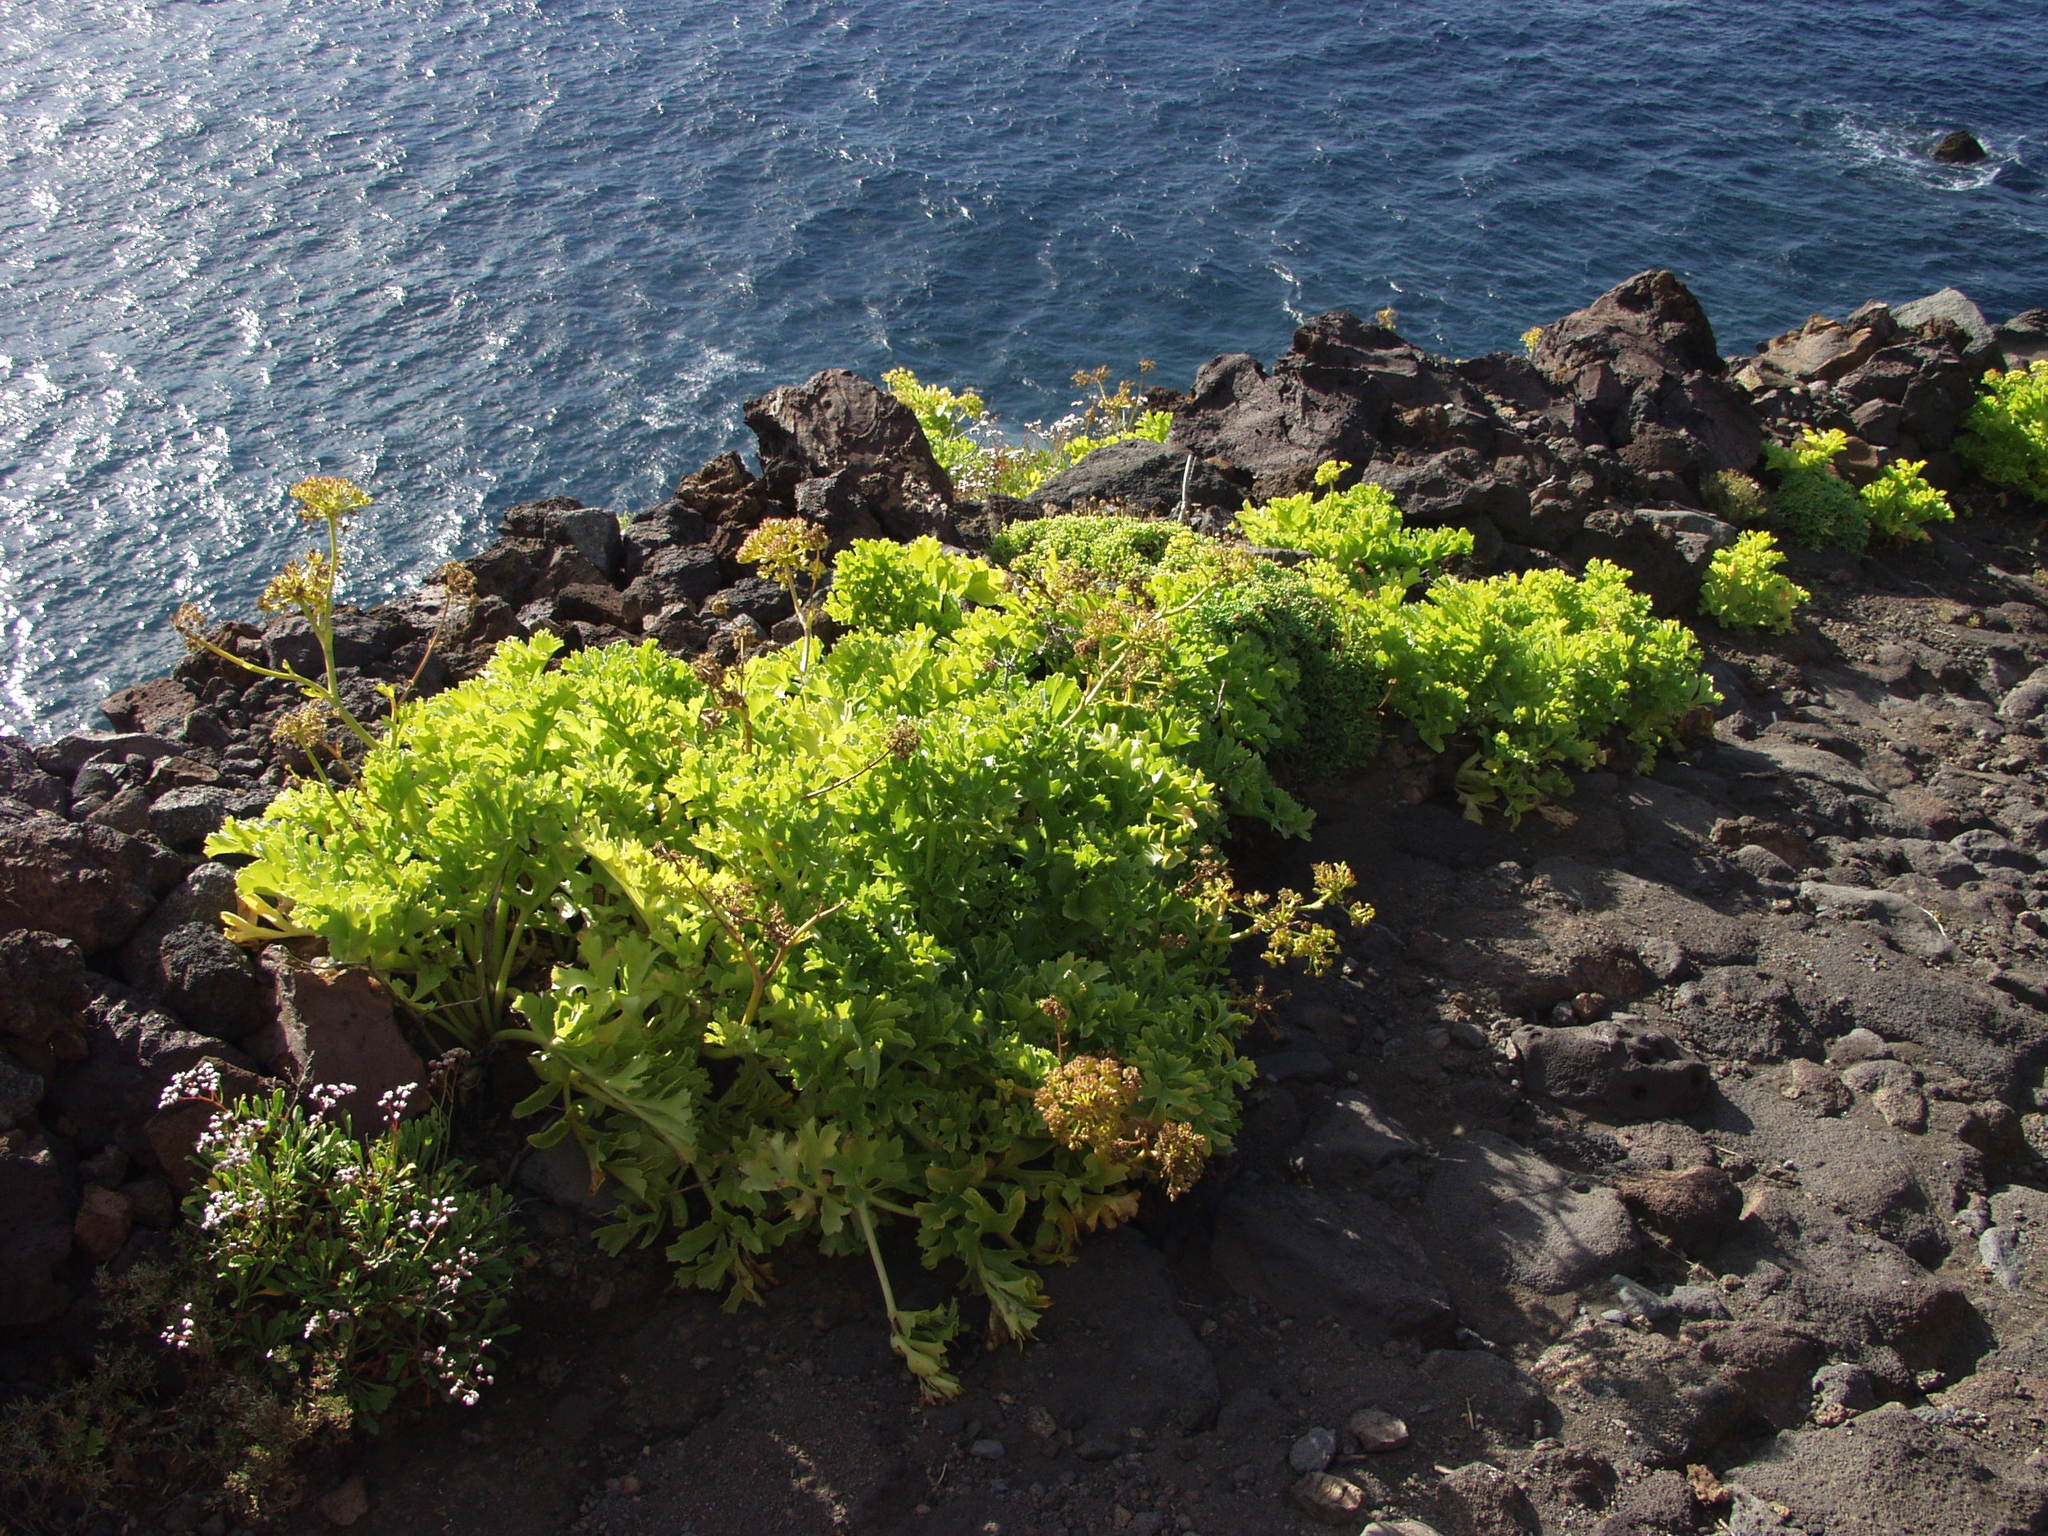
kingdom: Plantae
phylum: Tracheophyta
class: Magnoliopsida
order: Apiales
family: Apiaceae
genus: Astydamia
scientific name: Astydamia latifolia
